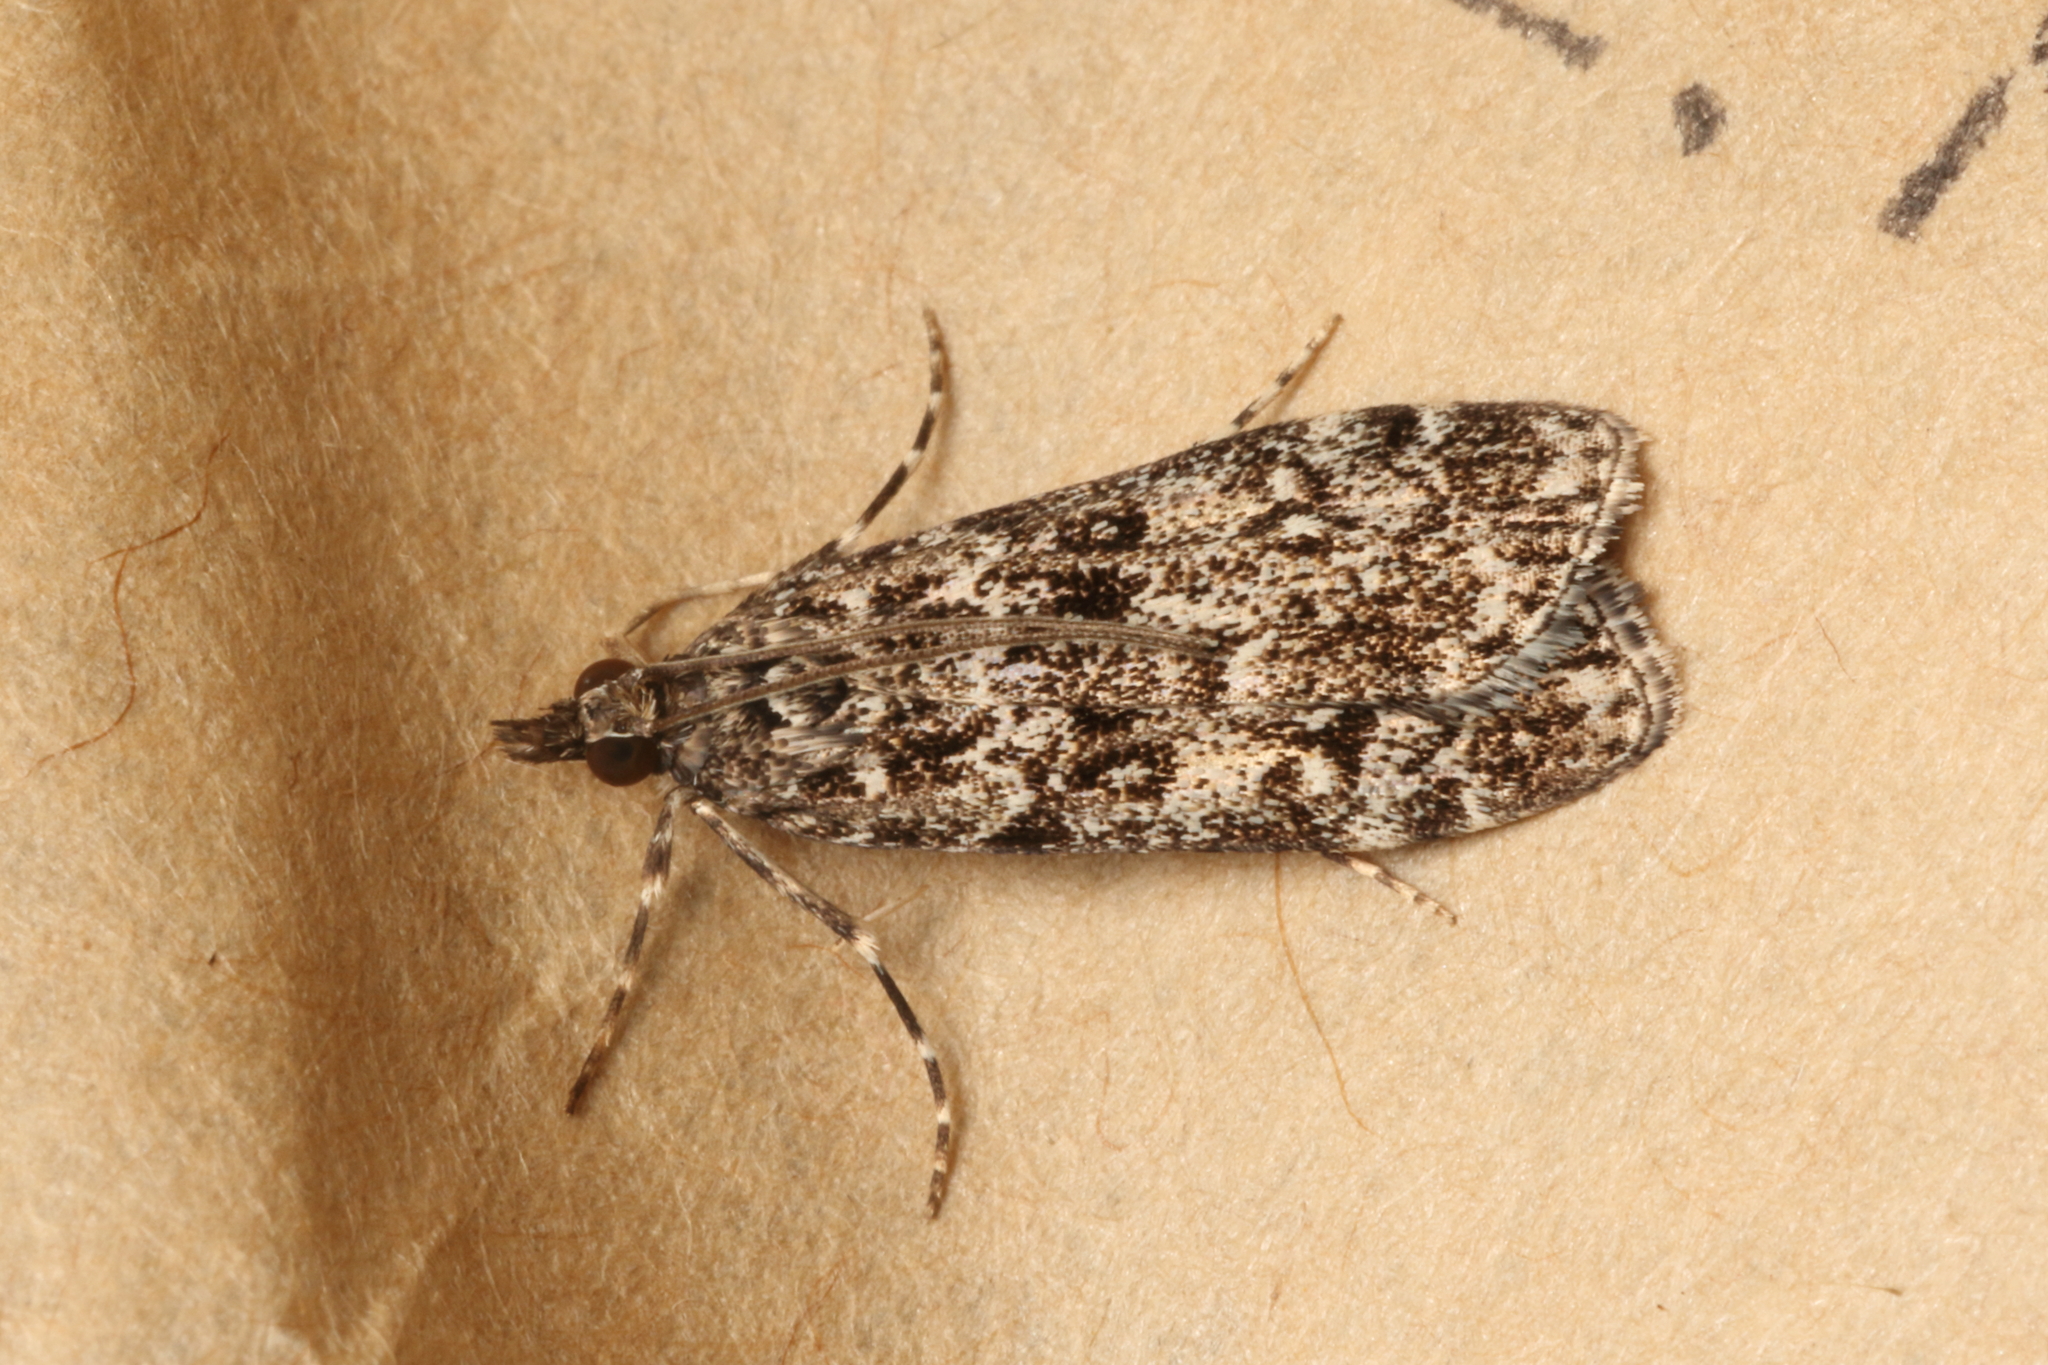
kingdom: Animalia
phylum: Arthropoda
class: Insecta
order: Lepidoptera
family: Crambidae
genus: Eudonia
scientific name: Eudonia philerga
